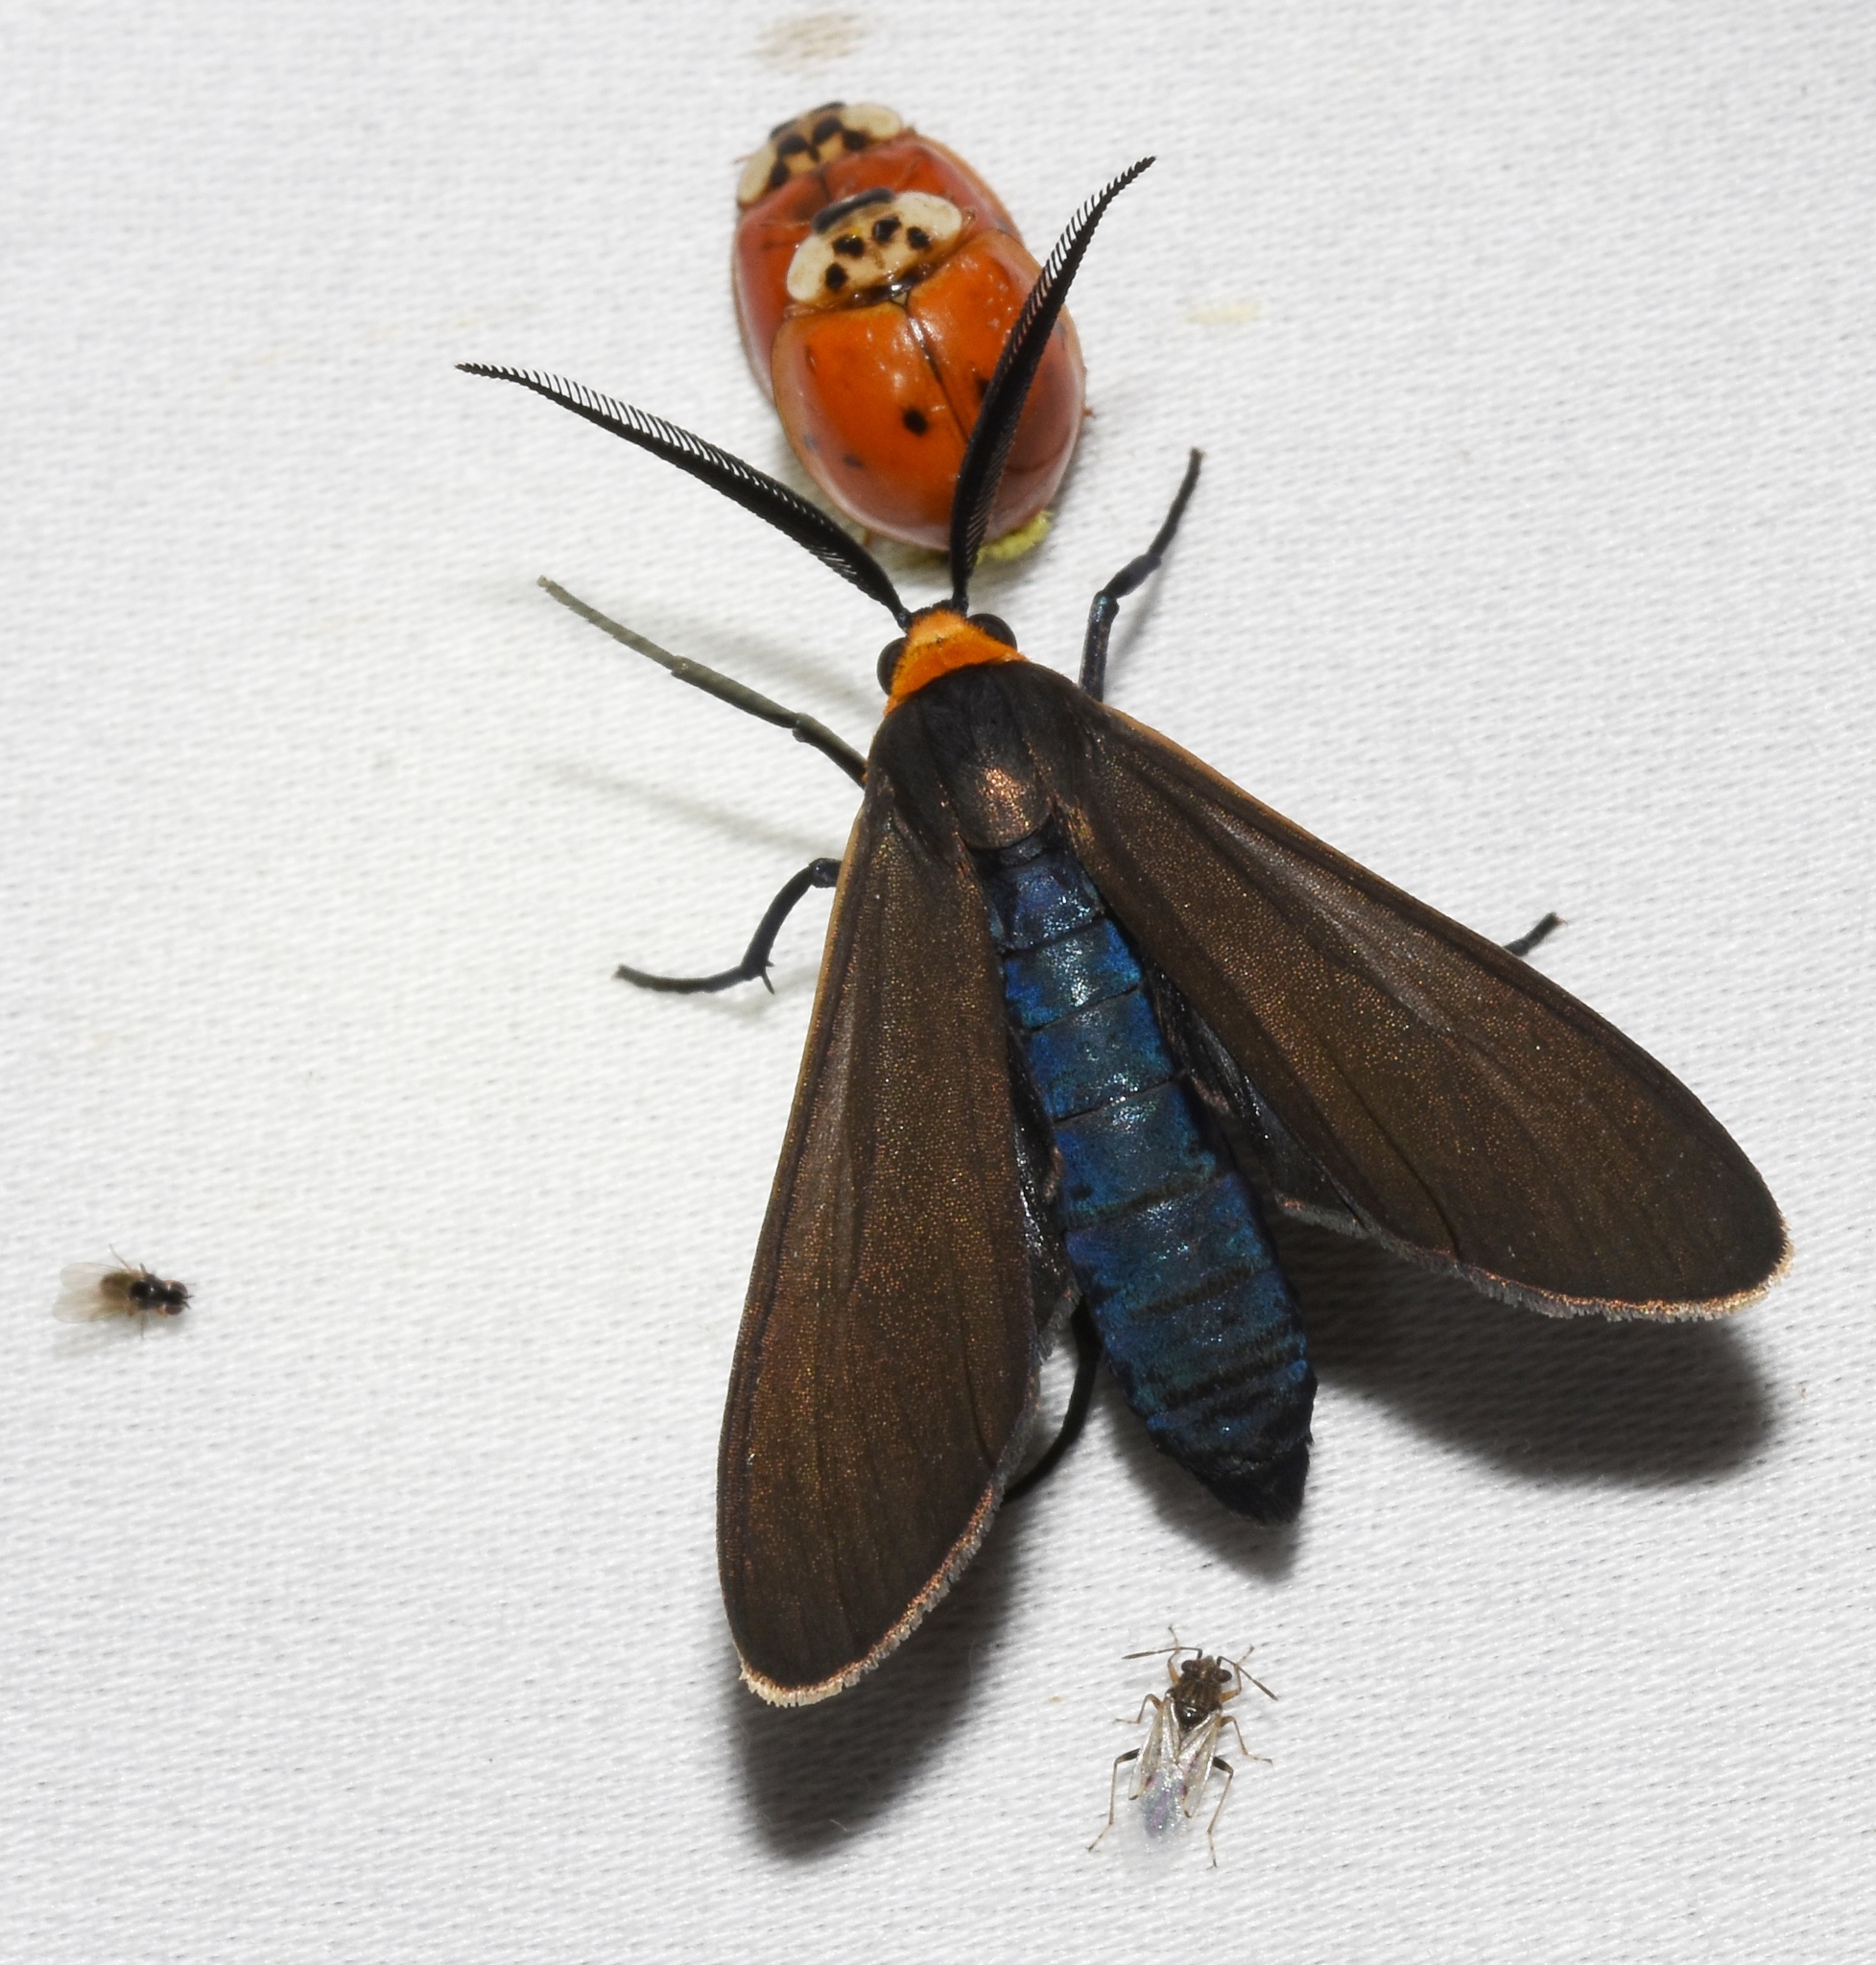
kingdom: Animalia
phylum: Arthropoda
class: Insecta
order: Lepidoptera
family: Erebidae
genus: Cisseps
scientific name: Cisseps fulvicollis
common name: Yellow-collared scape moth
